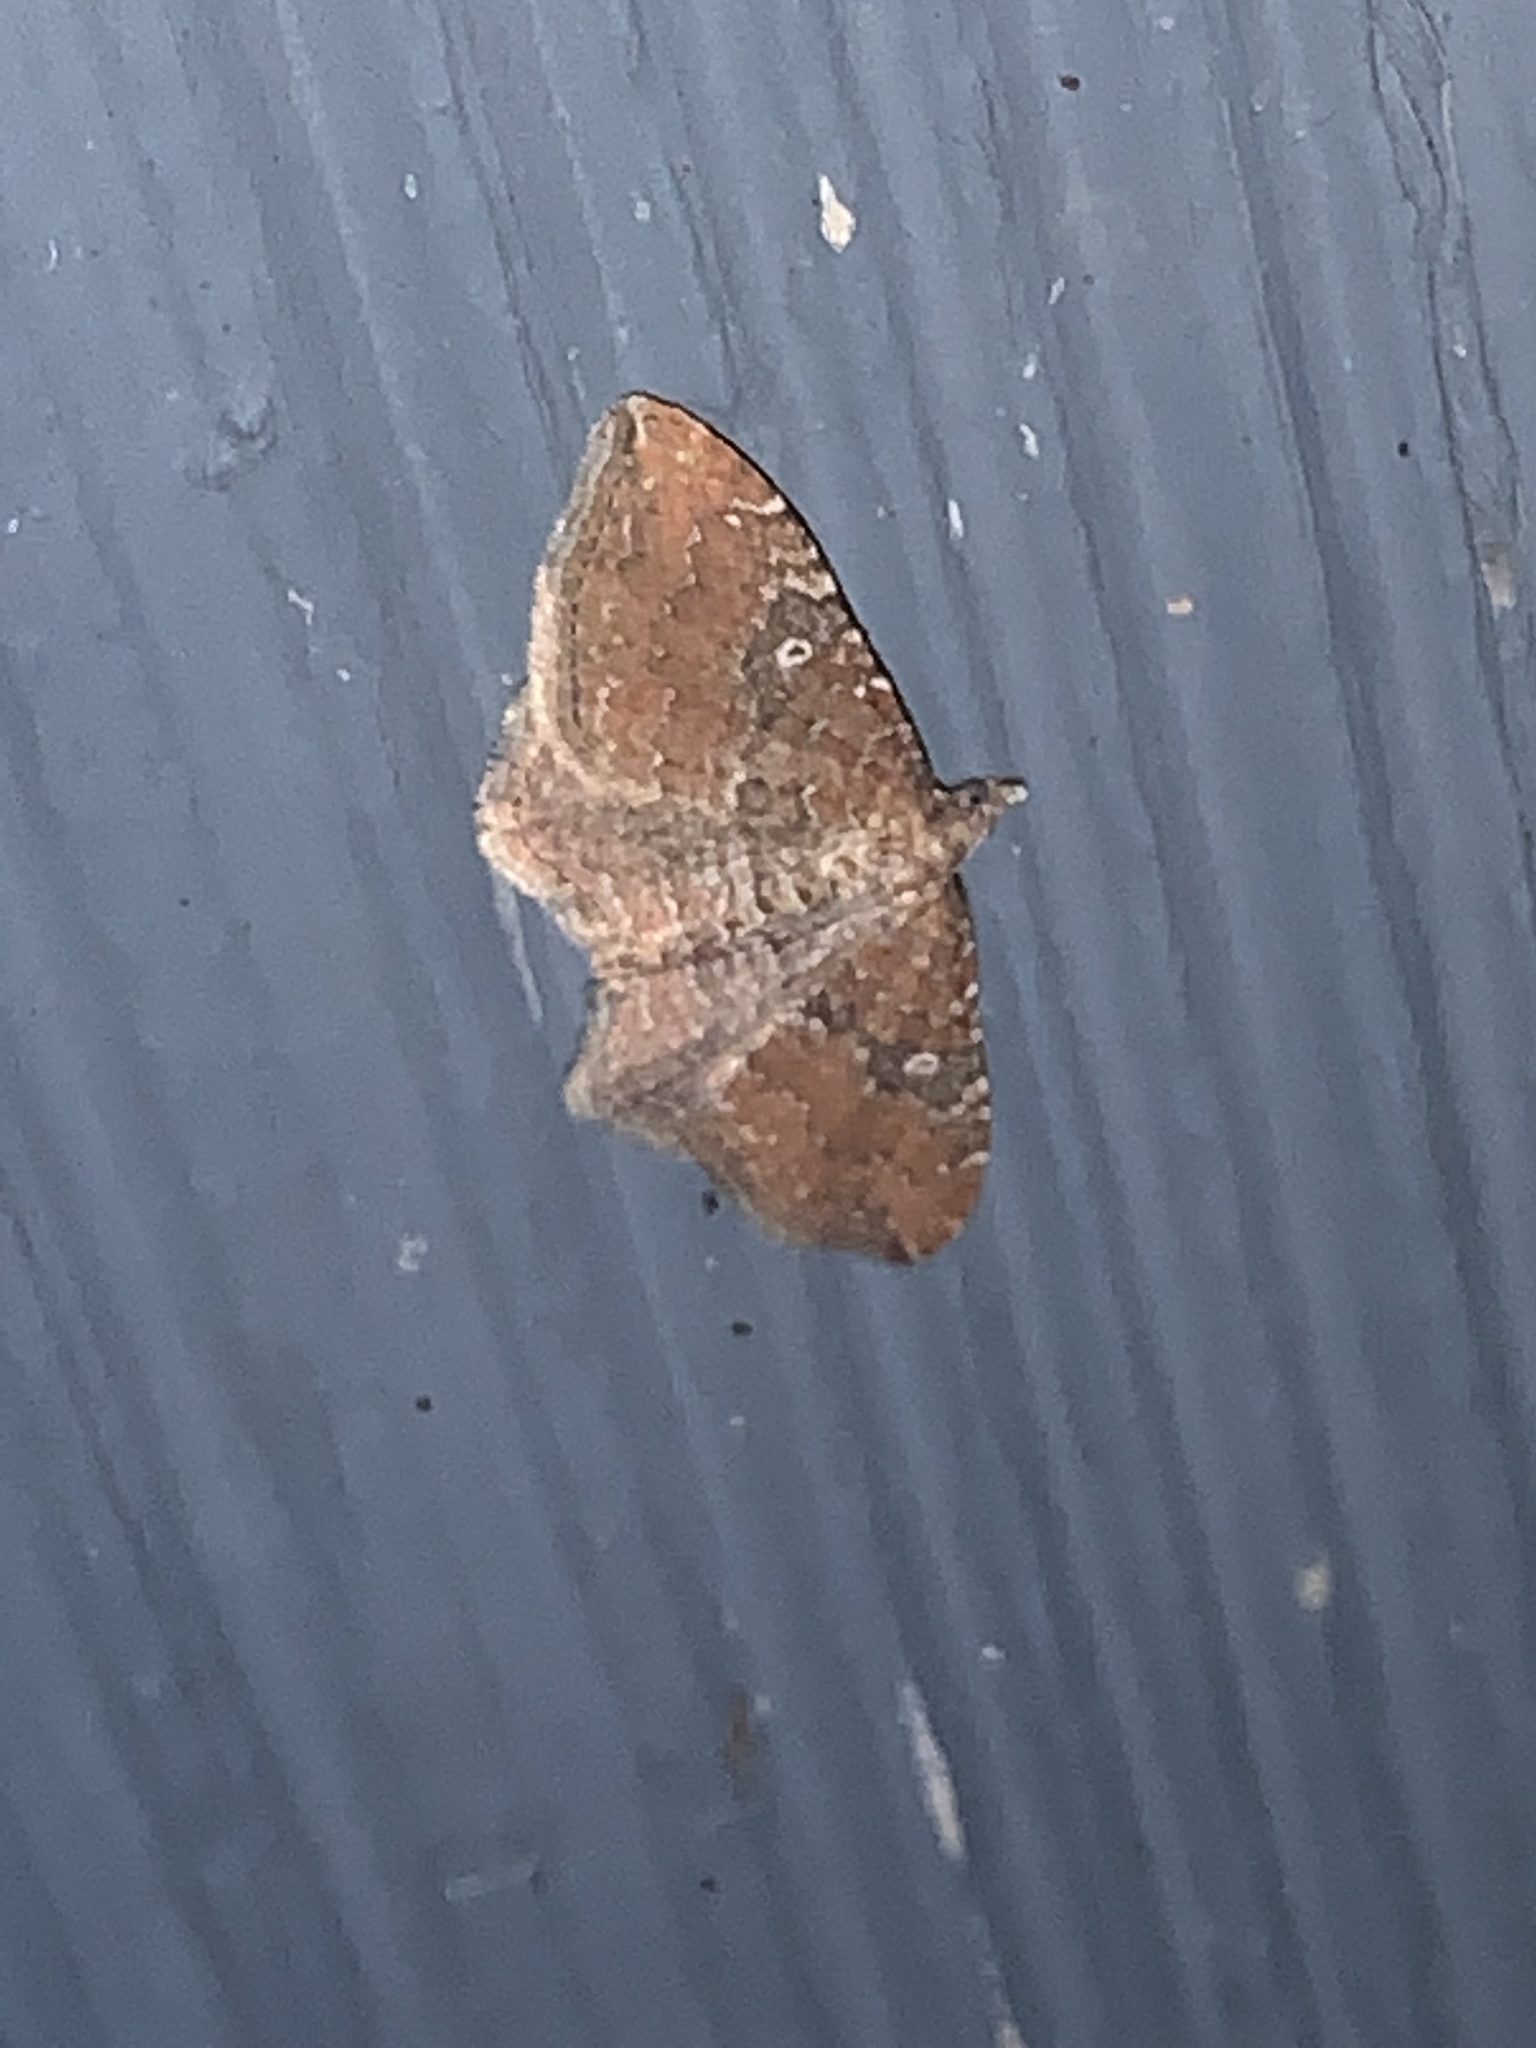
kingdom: Animalia
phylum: Arthropoda
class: Insecta
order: Lepidoptera
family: Geometridae
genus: Orthonama
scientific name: Orthonama obstipata
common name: The gem
